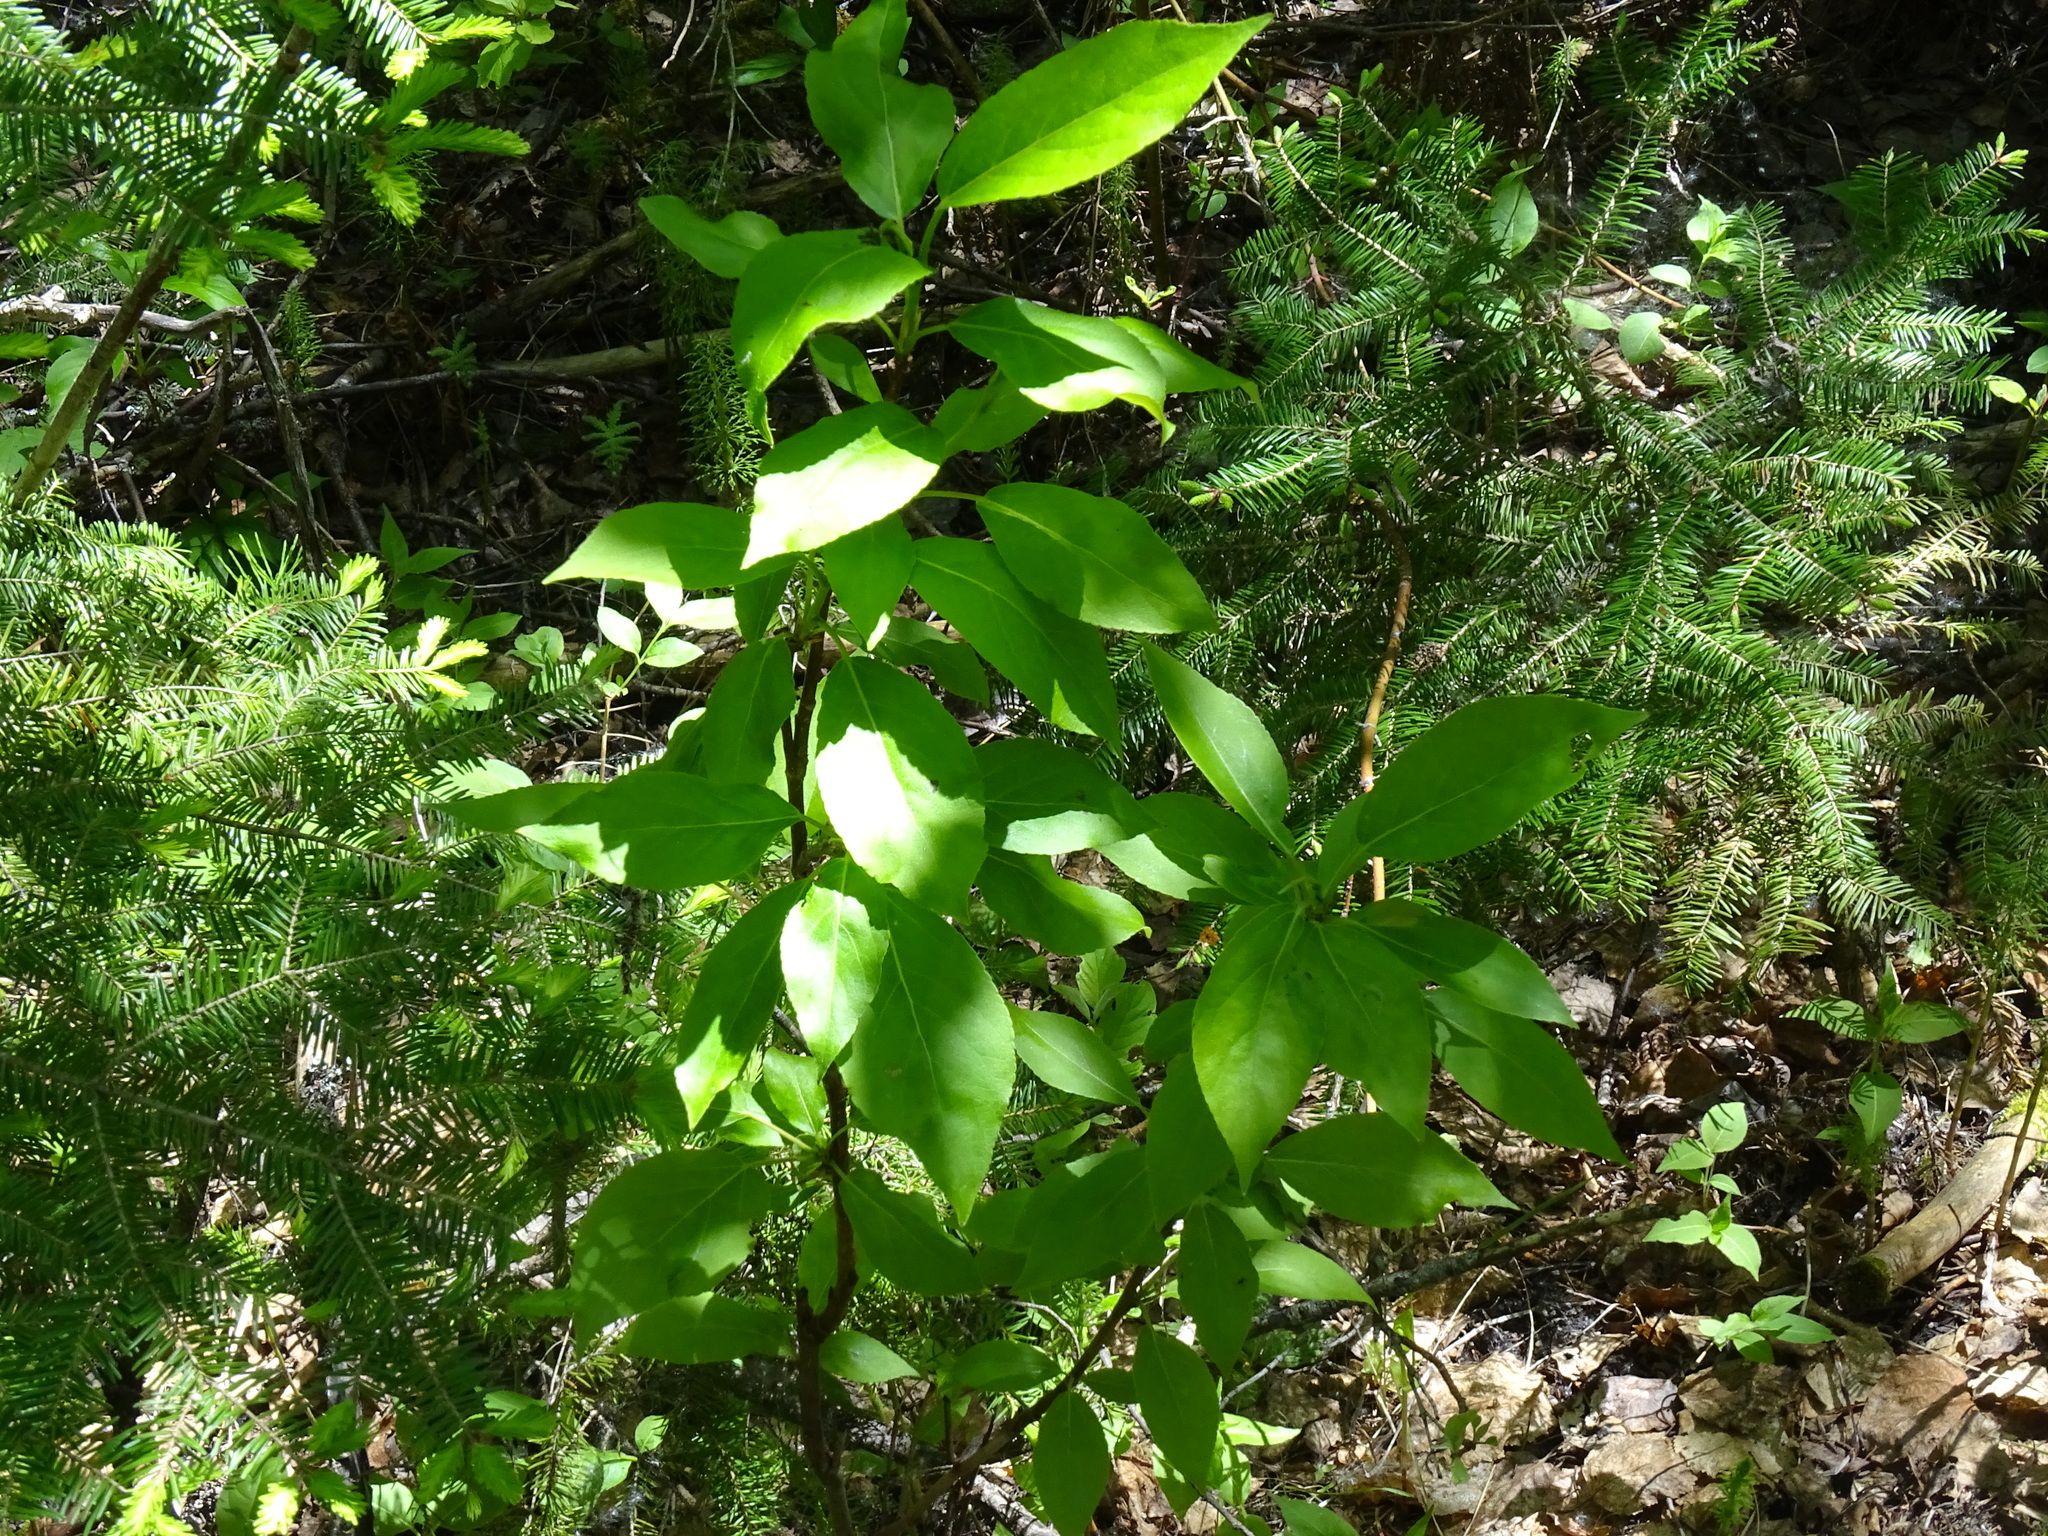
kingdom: Plantae
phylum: Tracheophyta
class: Magnoliopsida
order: Malpighiales
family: Salicaceae
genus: Populus
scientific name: Populus balsamifera
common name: Balsam poplar
